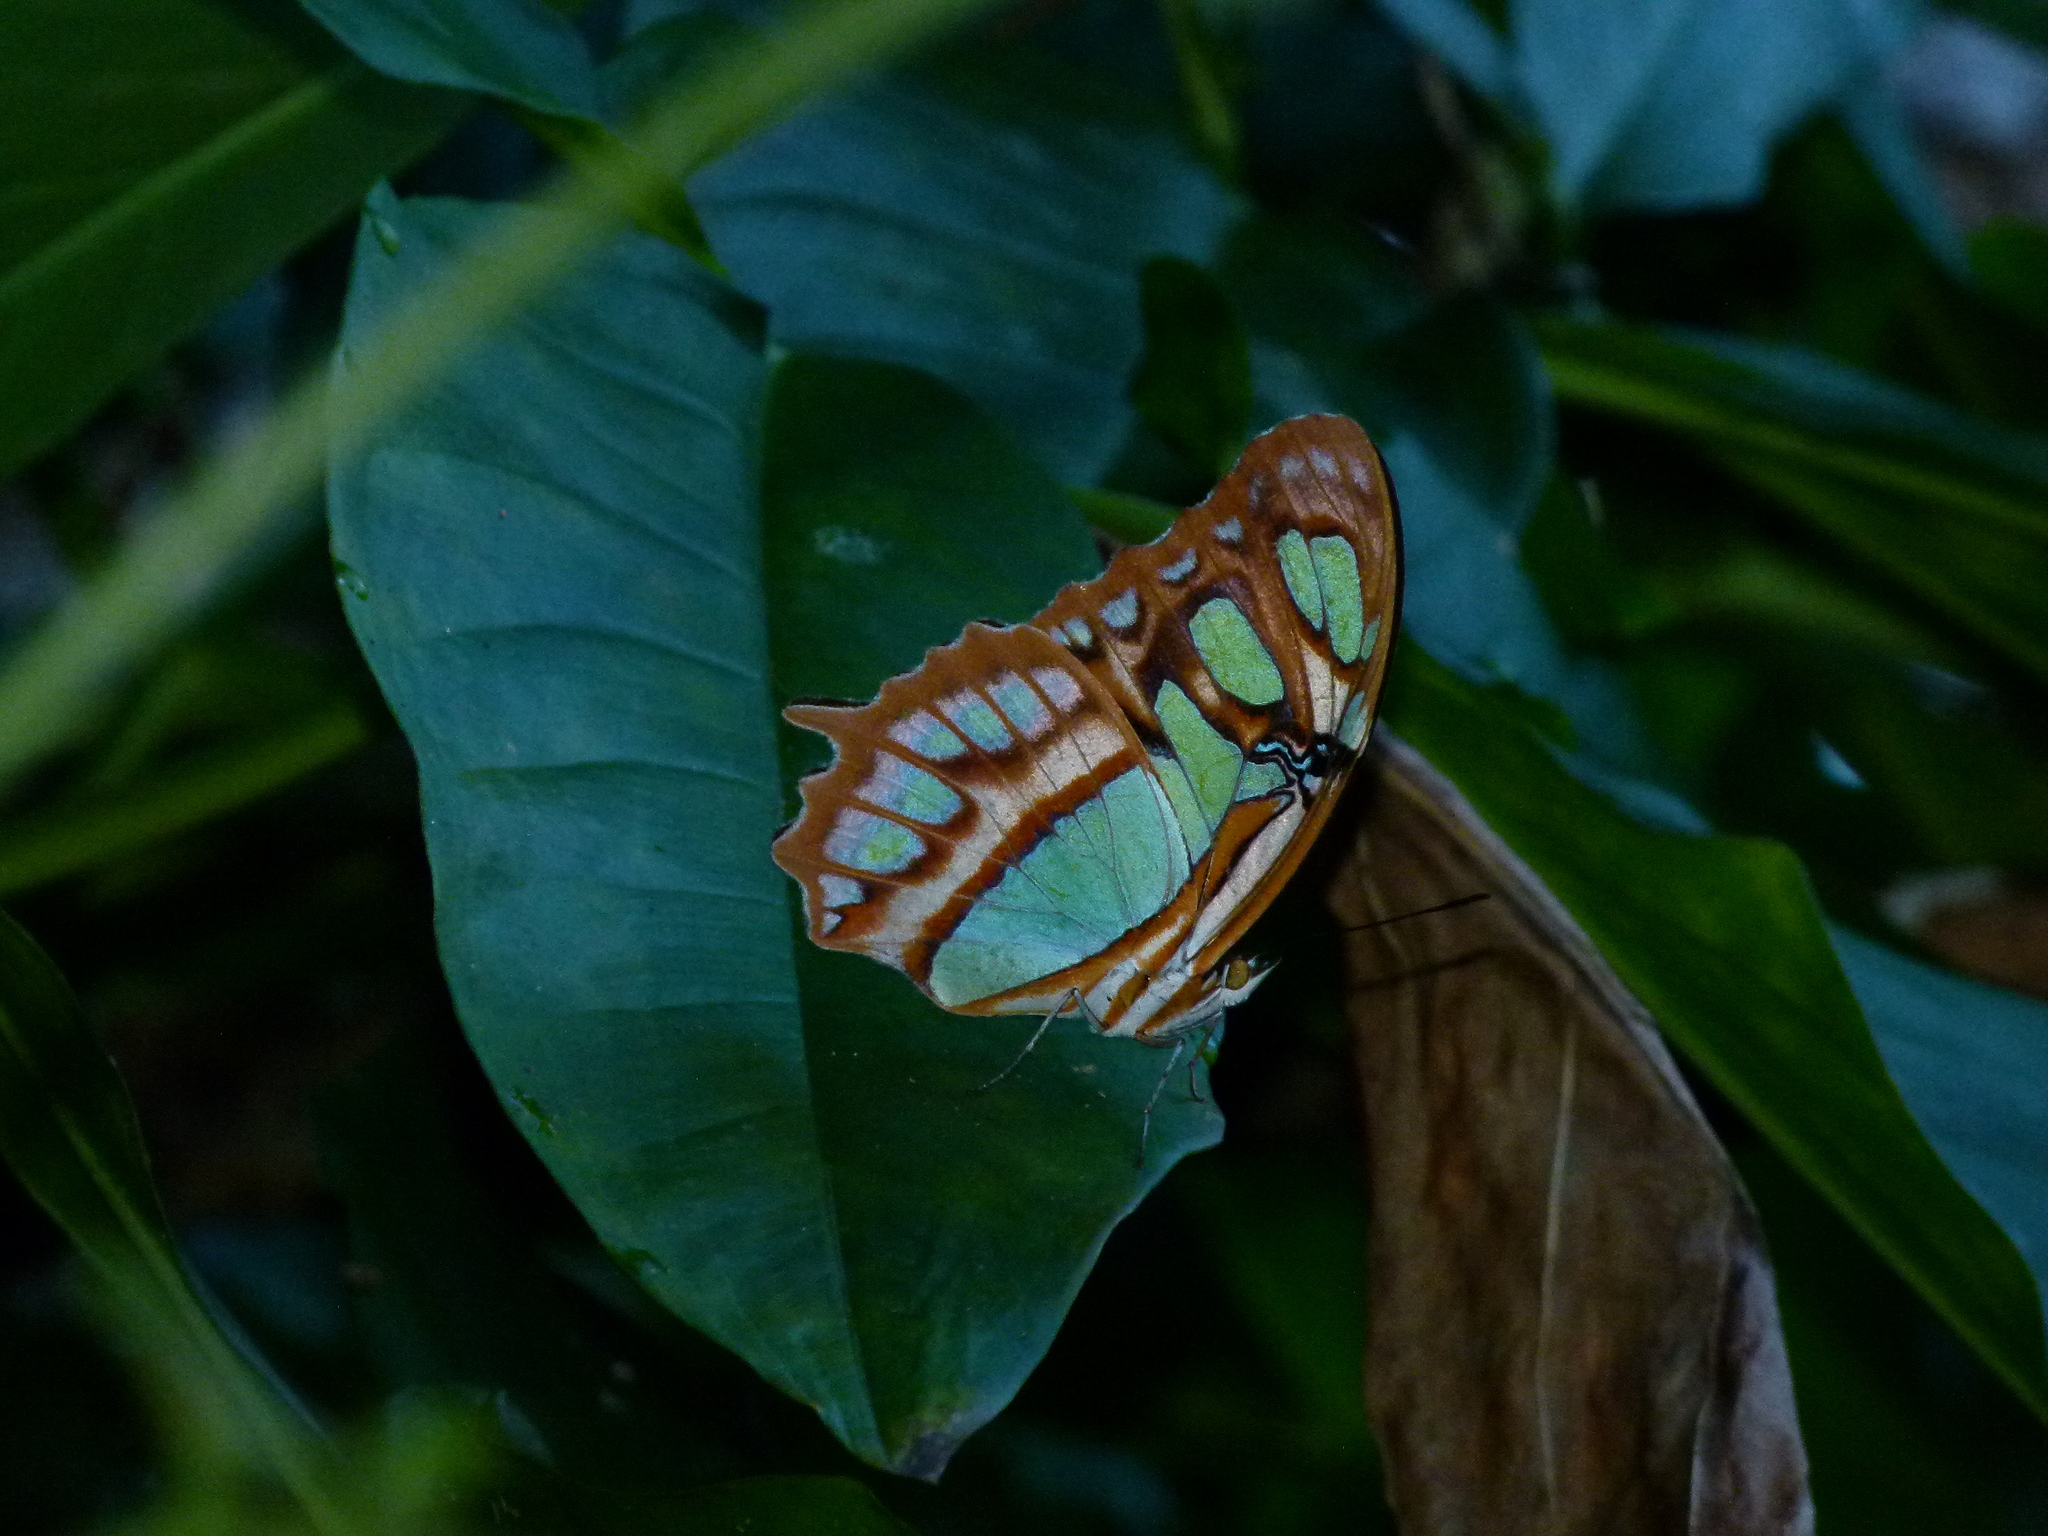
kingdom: Animalia
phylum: Arthropoda
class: Insecta
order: Lepidoptera
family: Nymphalidae
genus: Siproeta
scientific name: Siproeta stelenes
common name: Malachite
